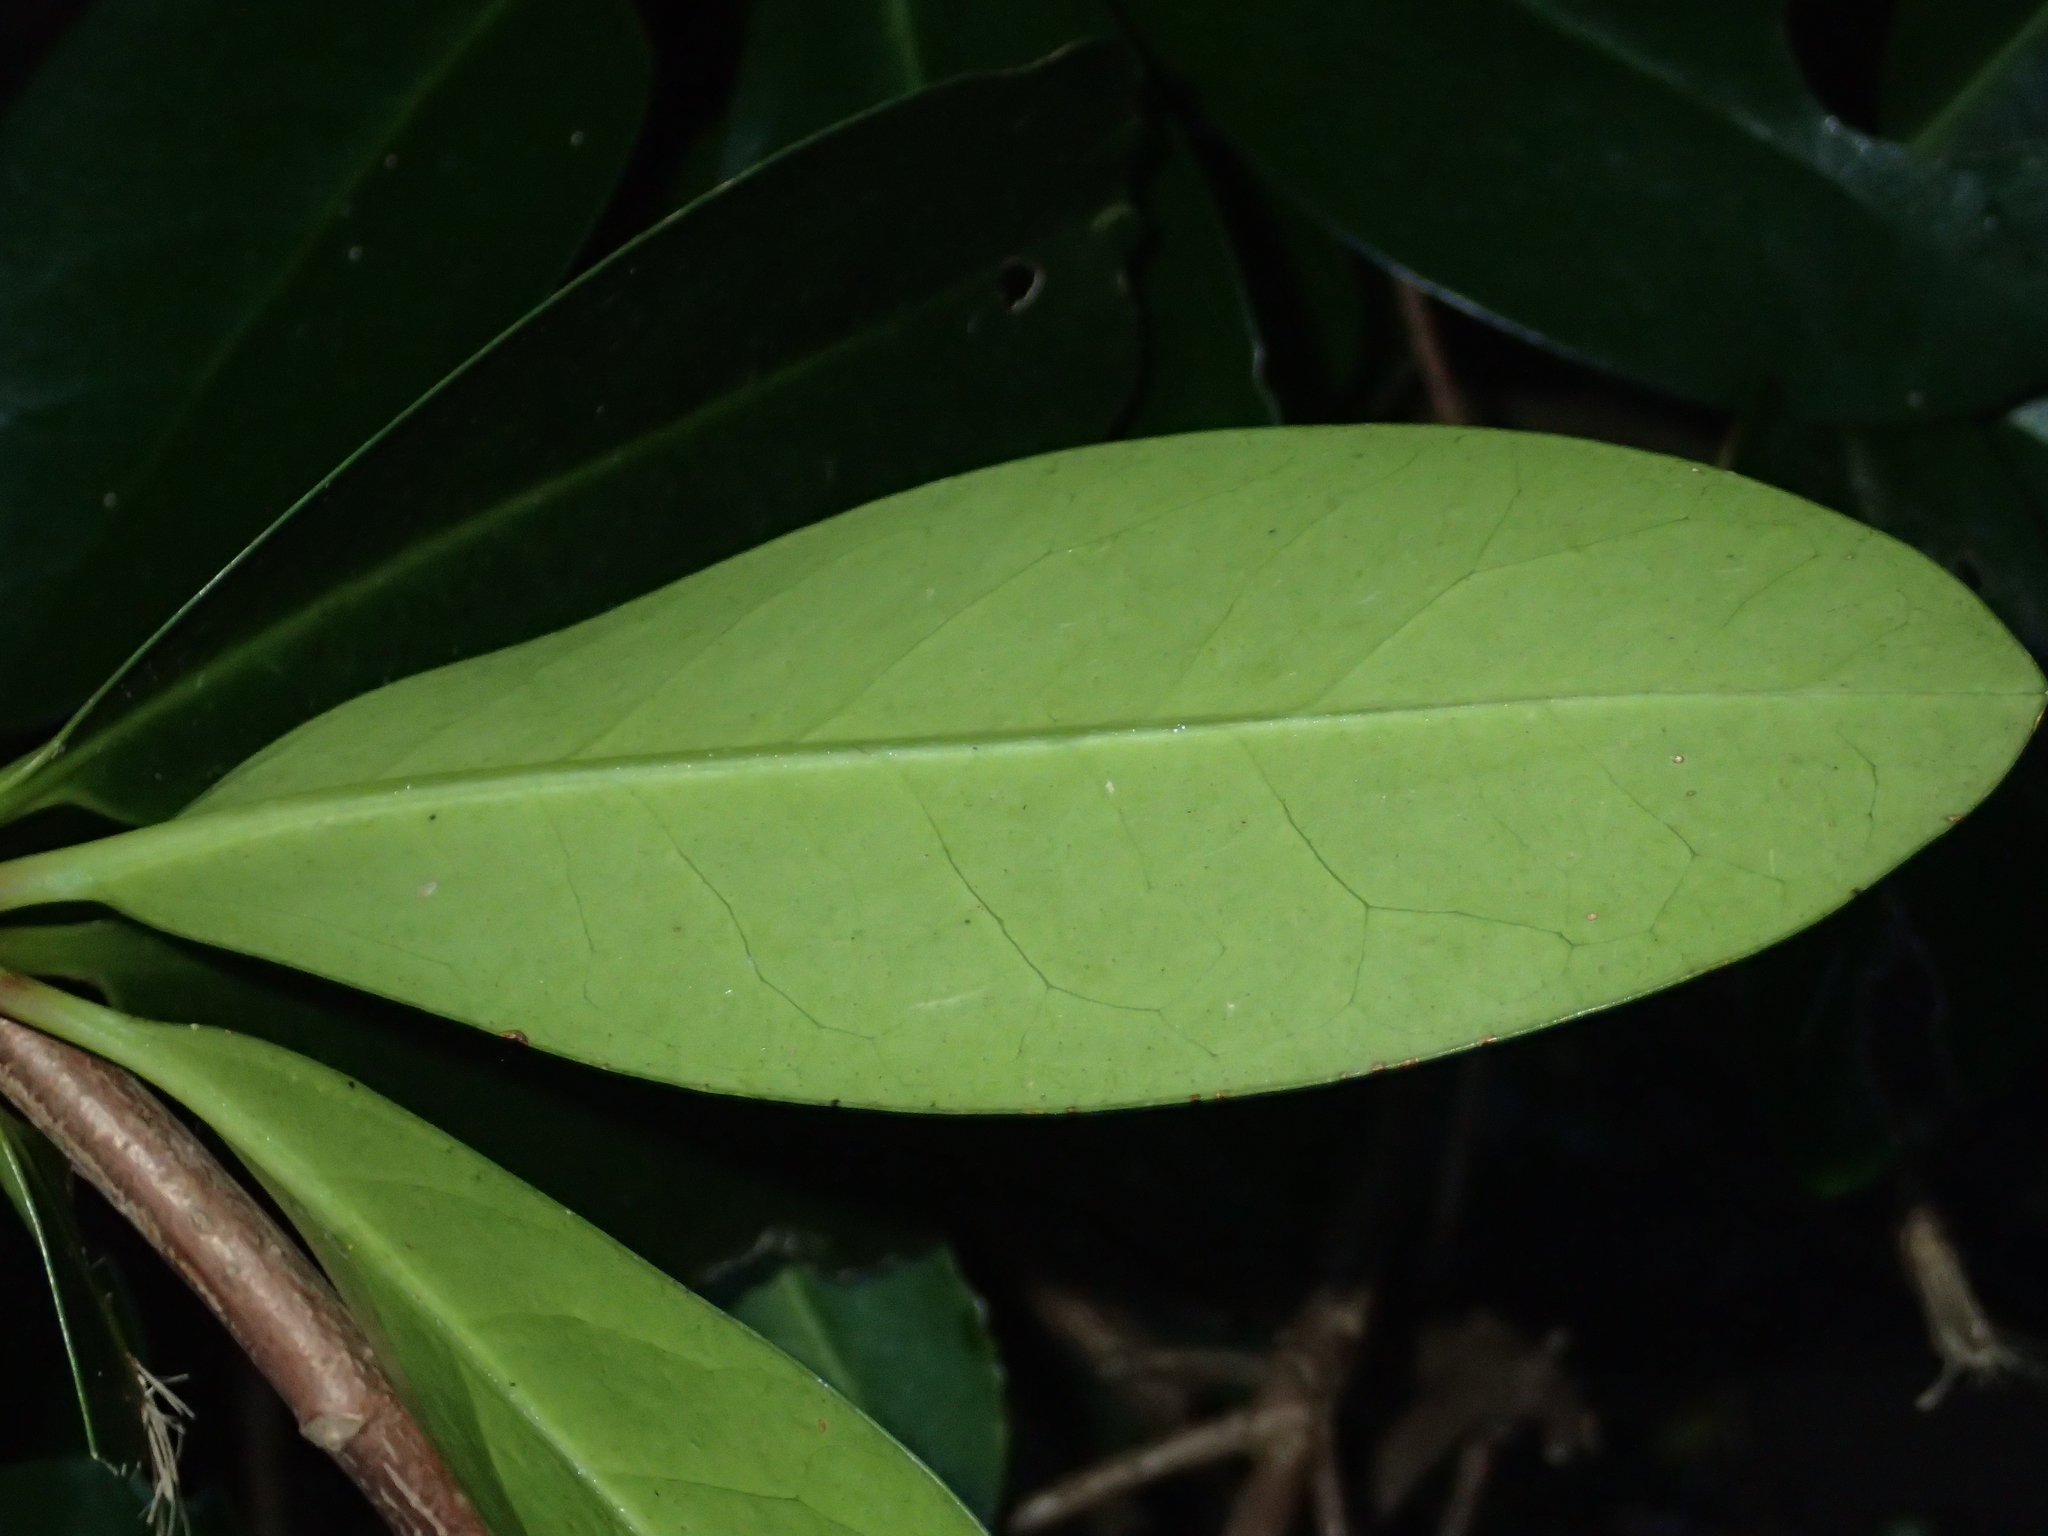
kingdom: Plantae
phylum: Tracheophyta
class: Magnoliopsida
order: Cucurbitales
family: Corynocarpaceae
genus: Corynocarpus
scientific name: Corynocarpus laevigatus
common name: New zealand laurel
